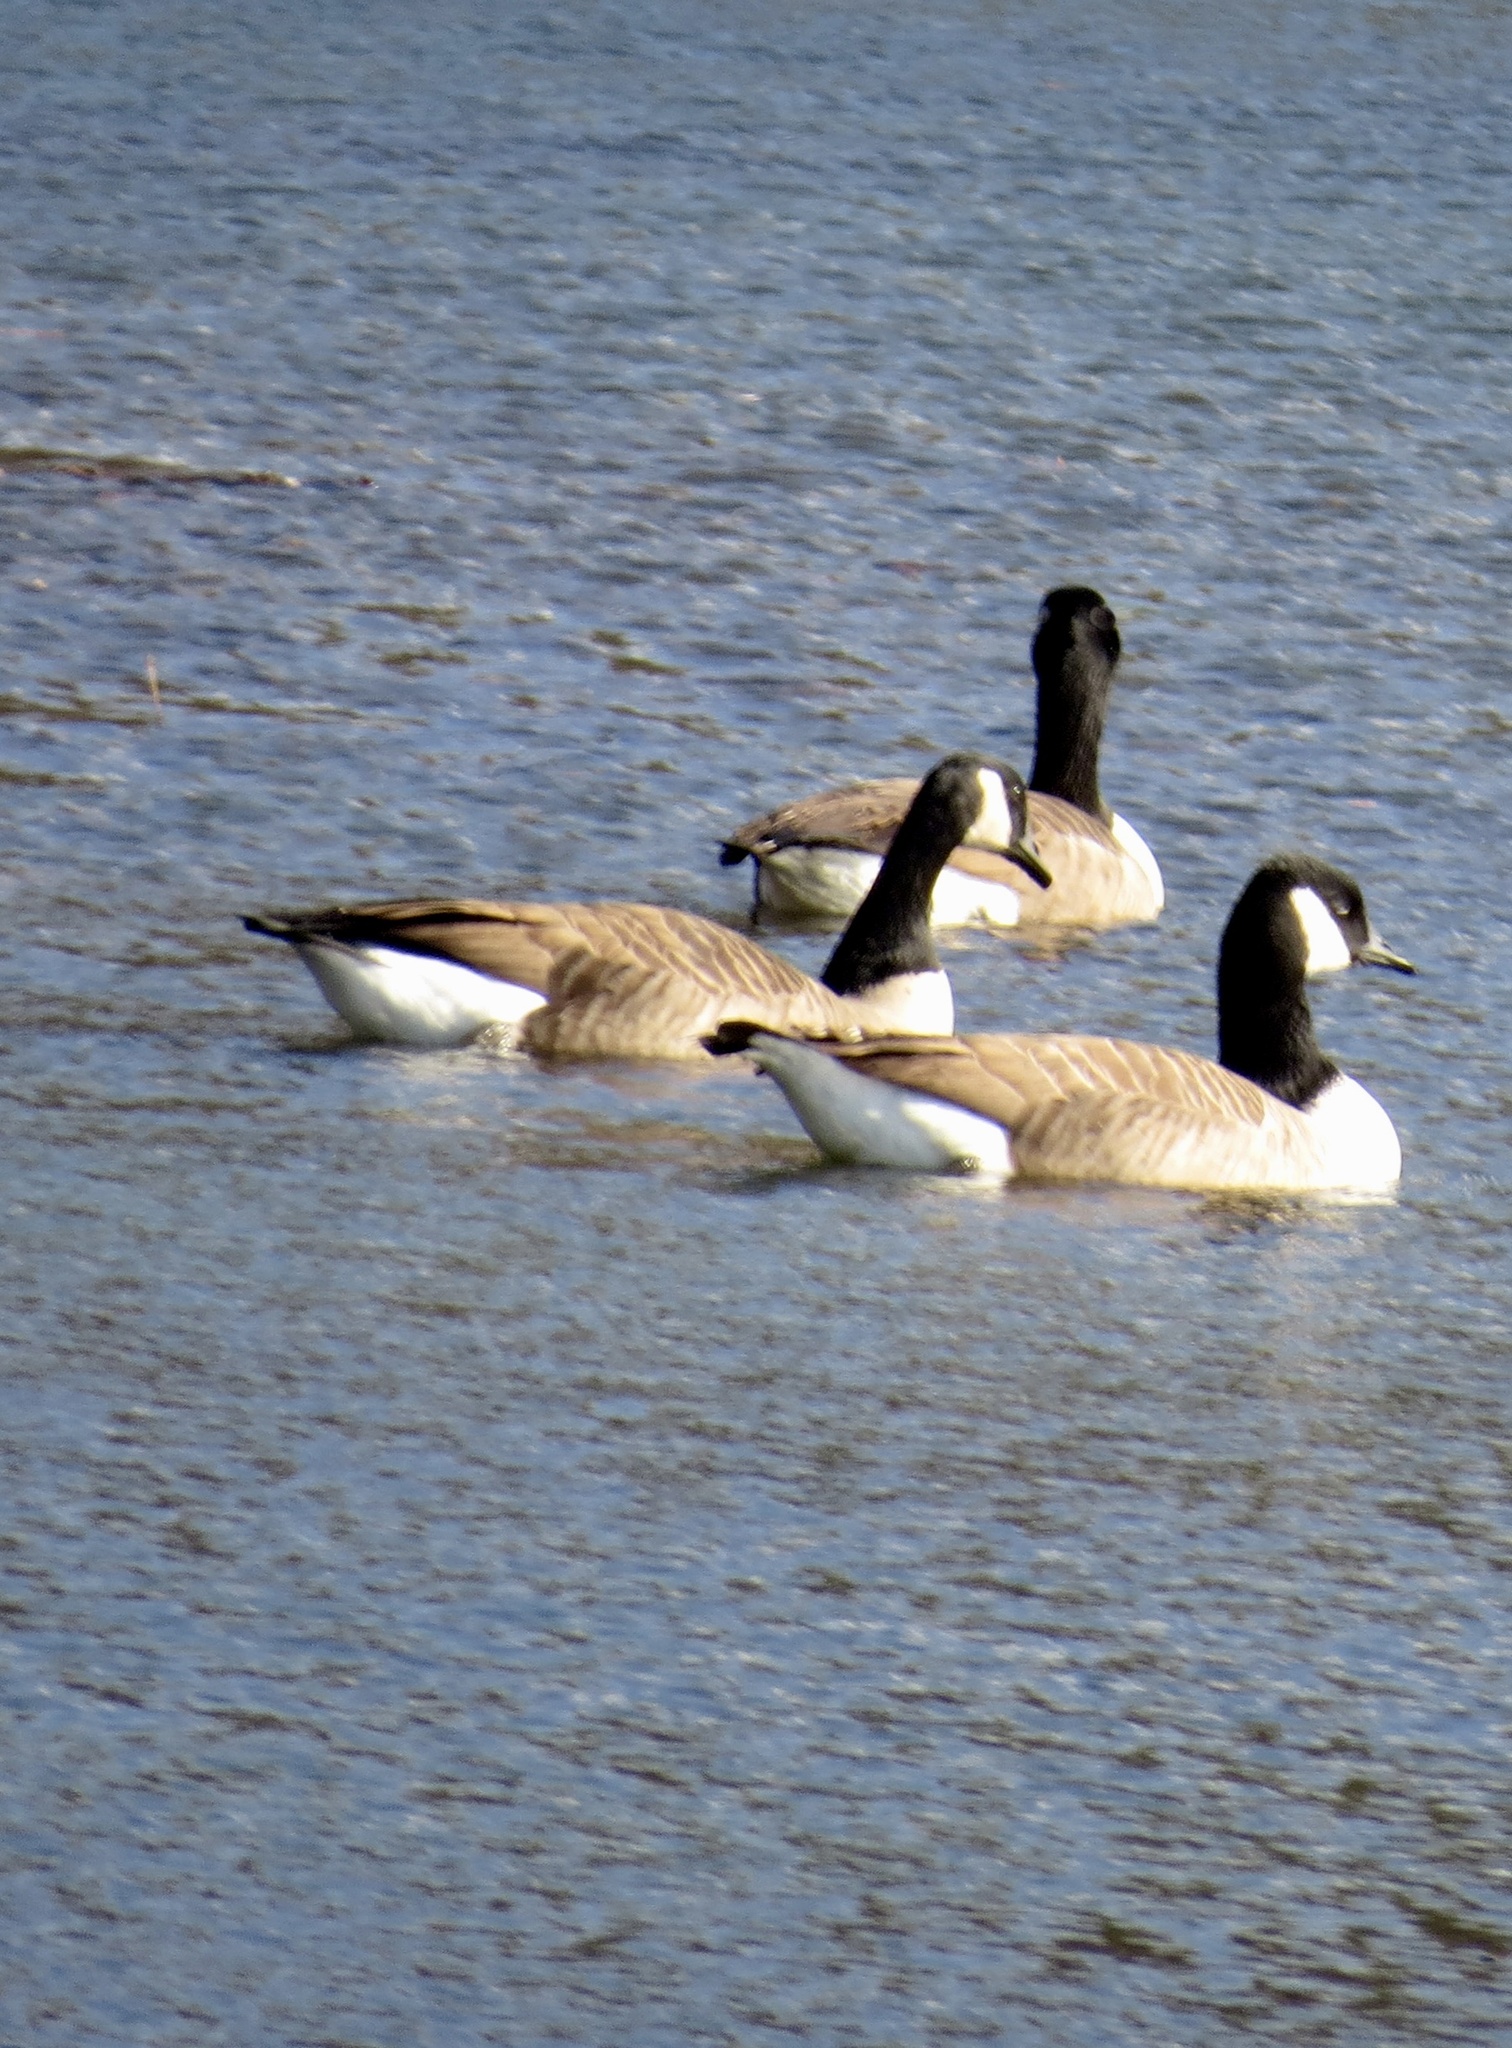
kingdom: Animalia
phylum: Chordata
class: Aves
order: Anseriformes
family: Anatidae
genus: Branta
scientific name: Branta canadensis
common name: Canada goose
